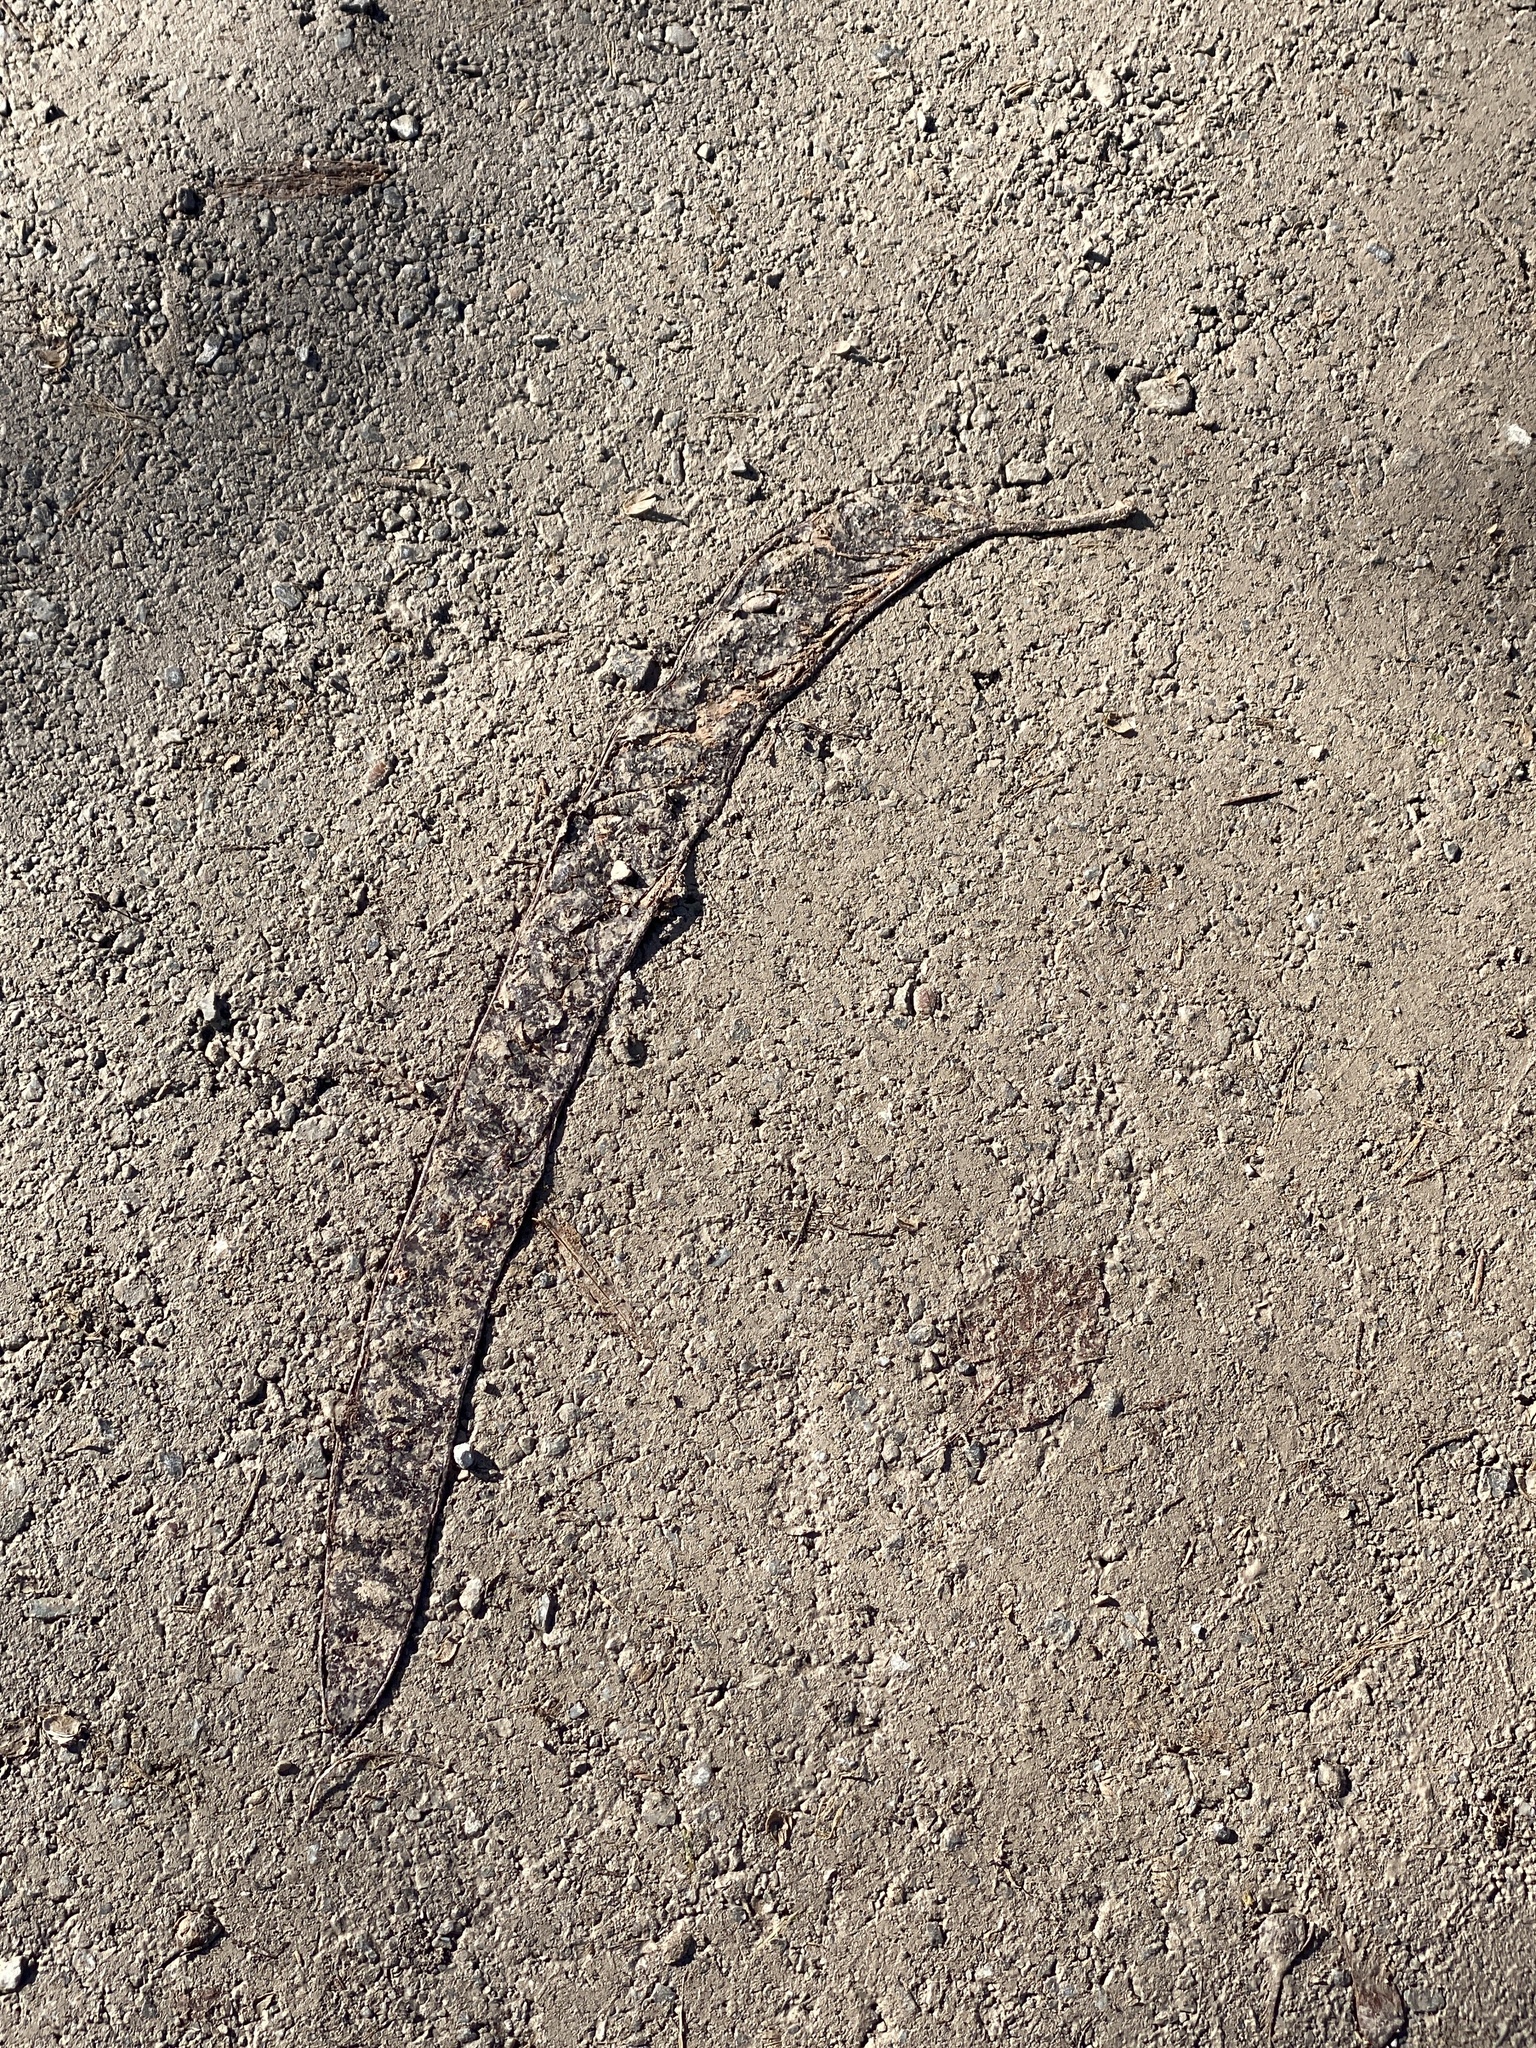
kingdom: Plantae
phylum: Tracheophyta
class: Magnoliopsida
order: Fabales
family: Fabaceae
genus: Gleditsia
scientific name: Gleditsia triacanthos
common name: Common honeylocust
